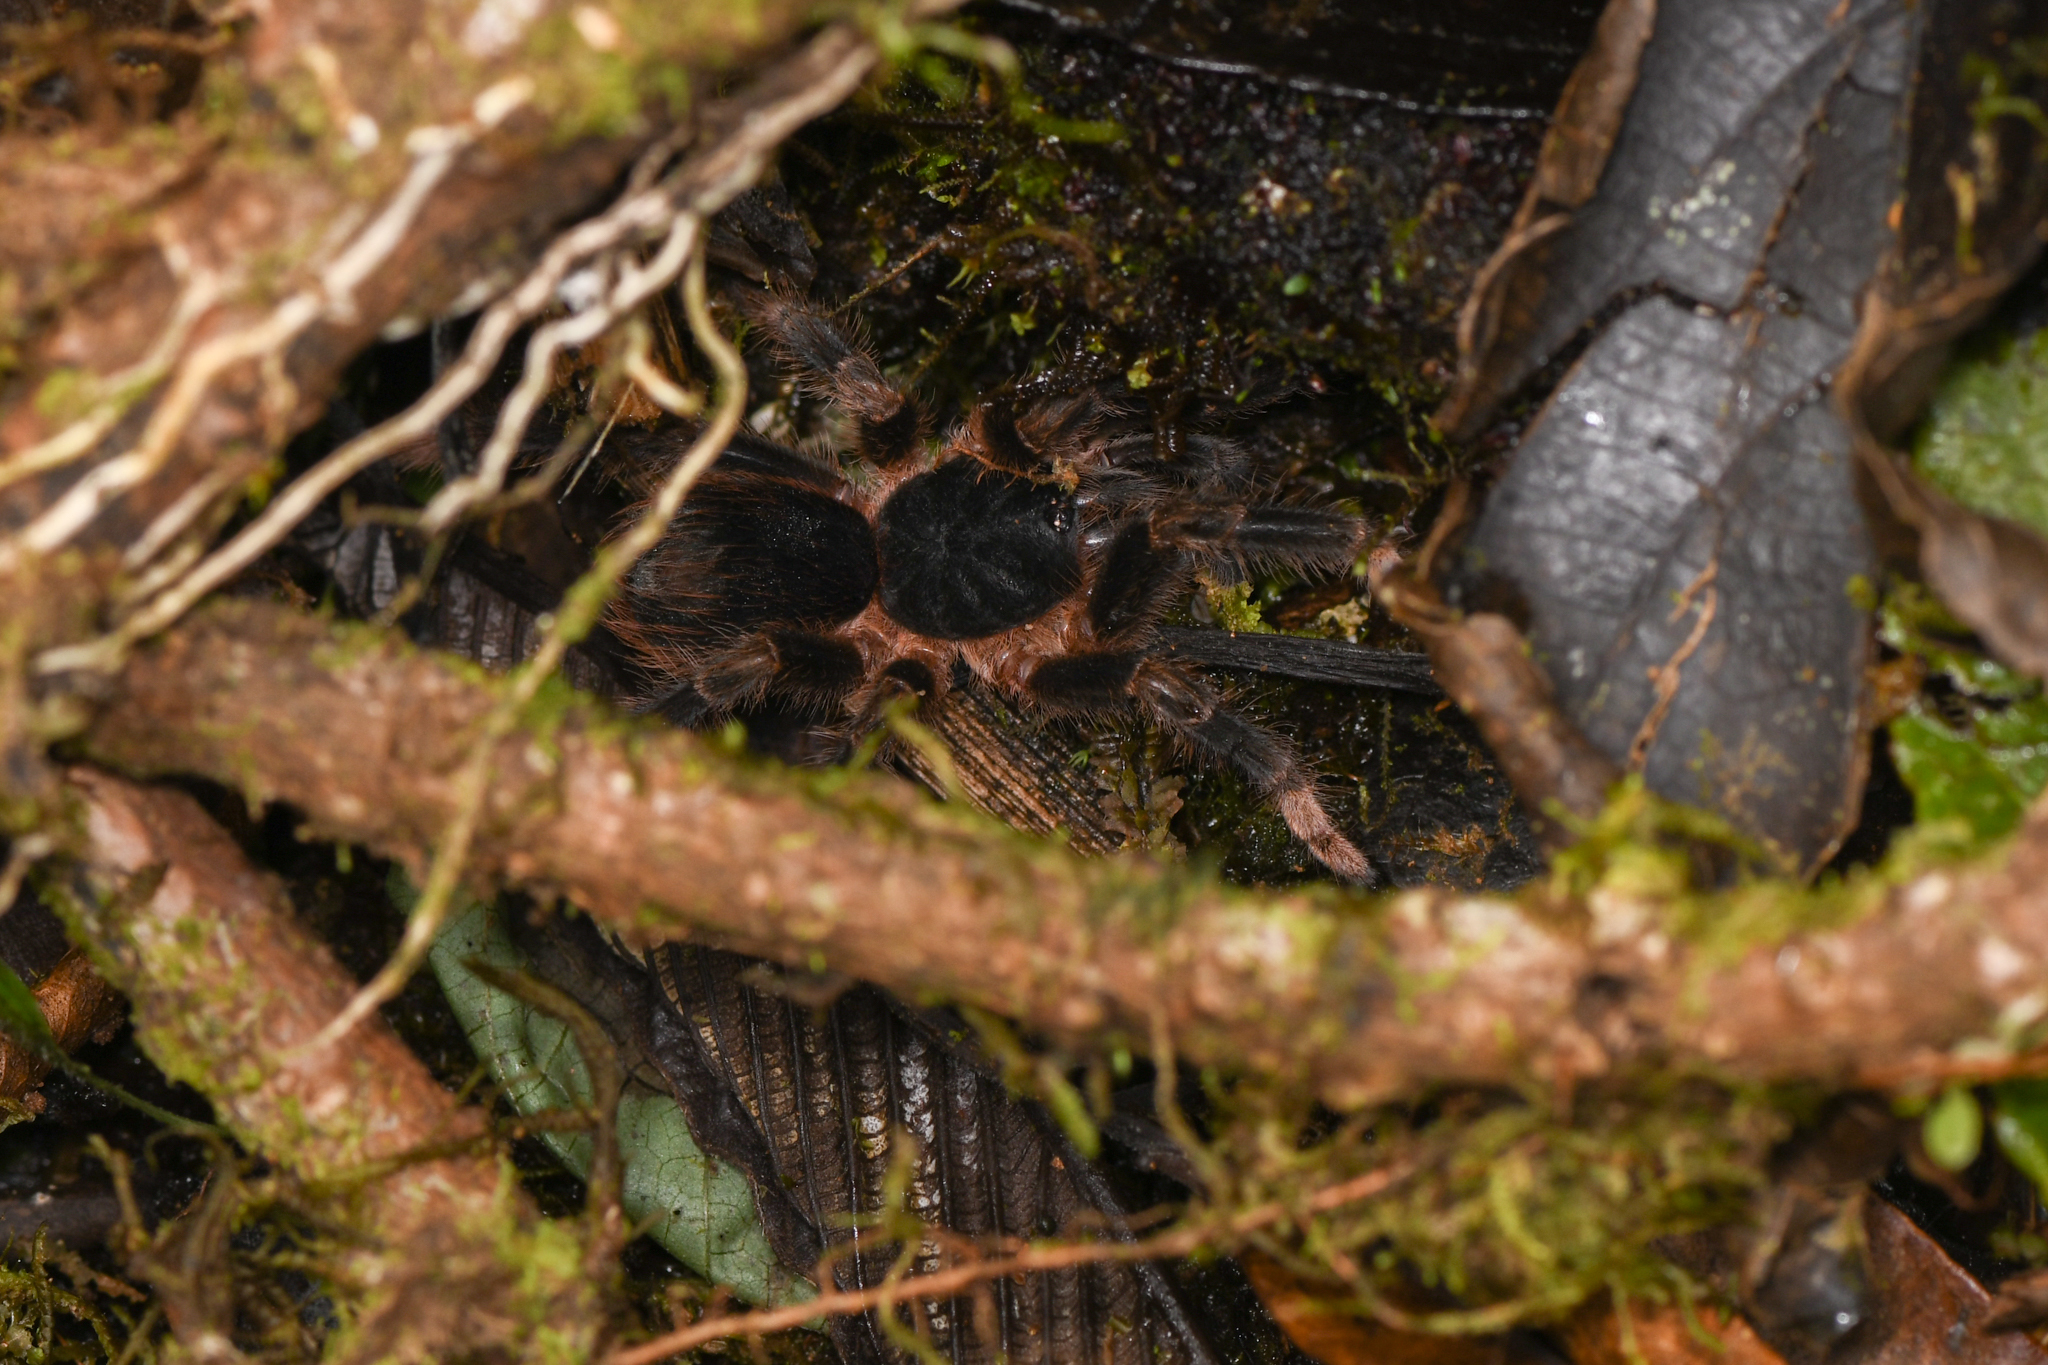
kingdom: Animalia
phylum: Arthropoda
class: Arachnida
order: Araneae
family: Theraphosidae
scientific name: Theraphosidae
